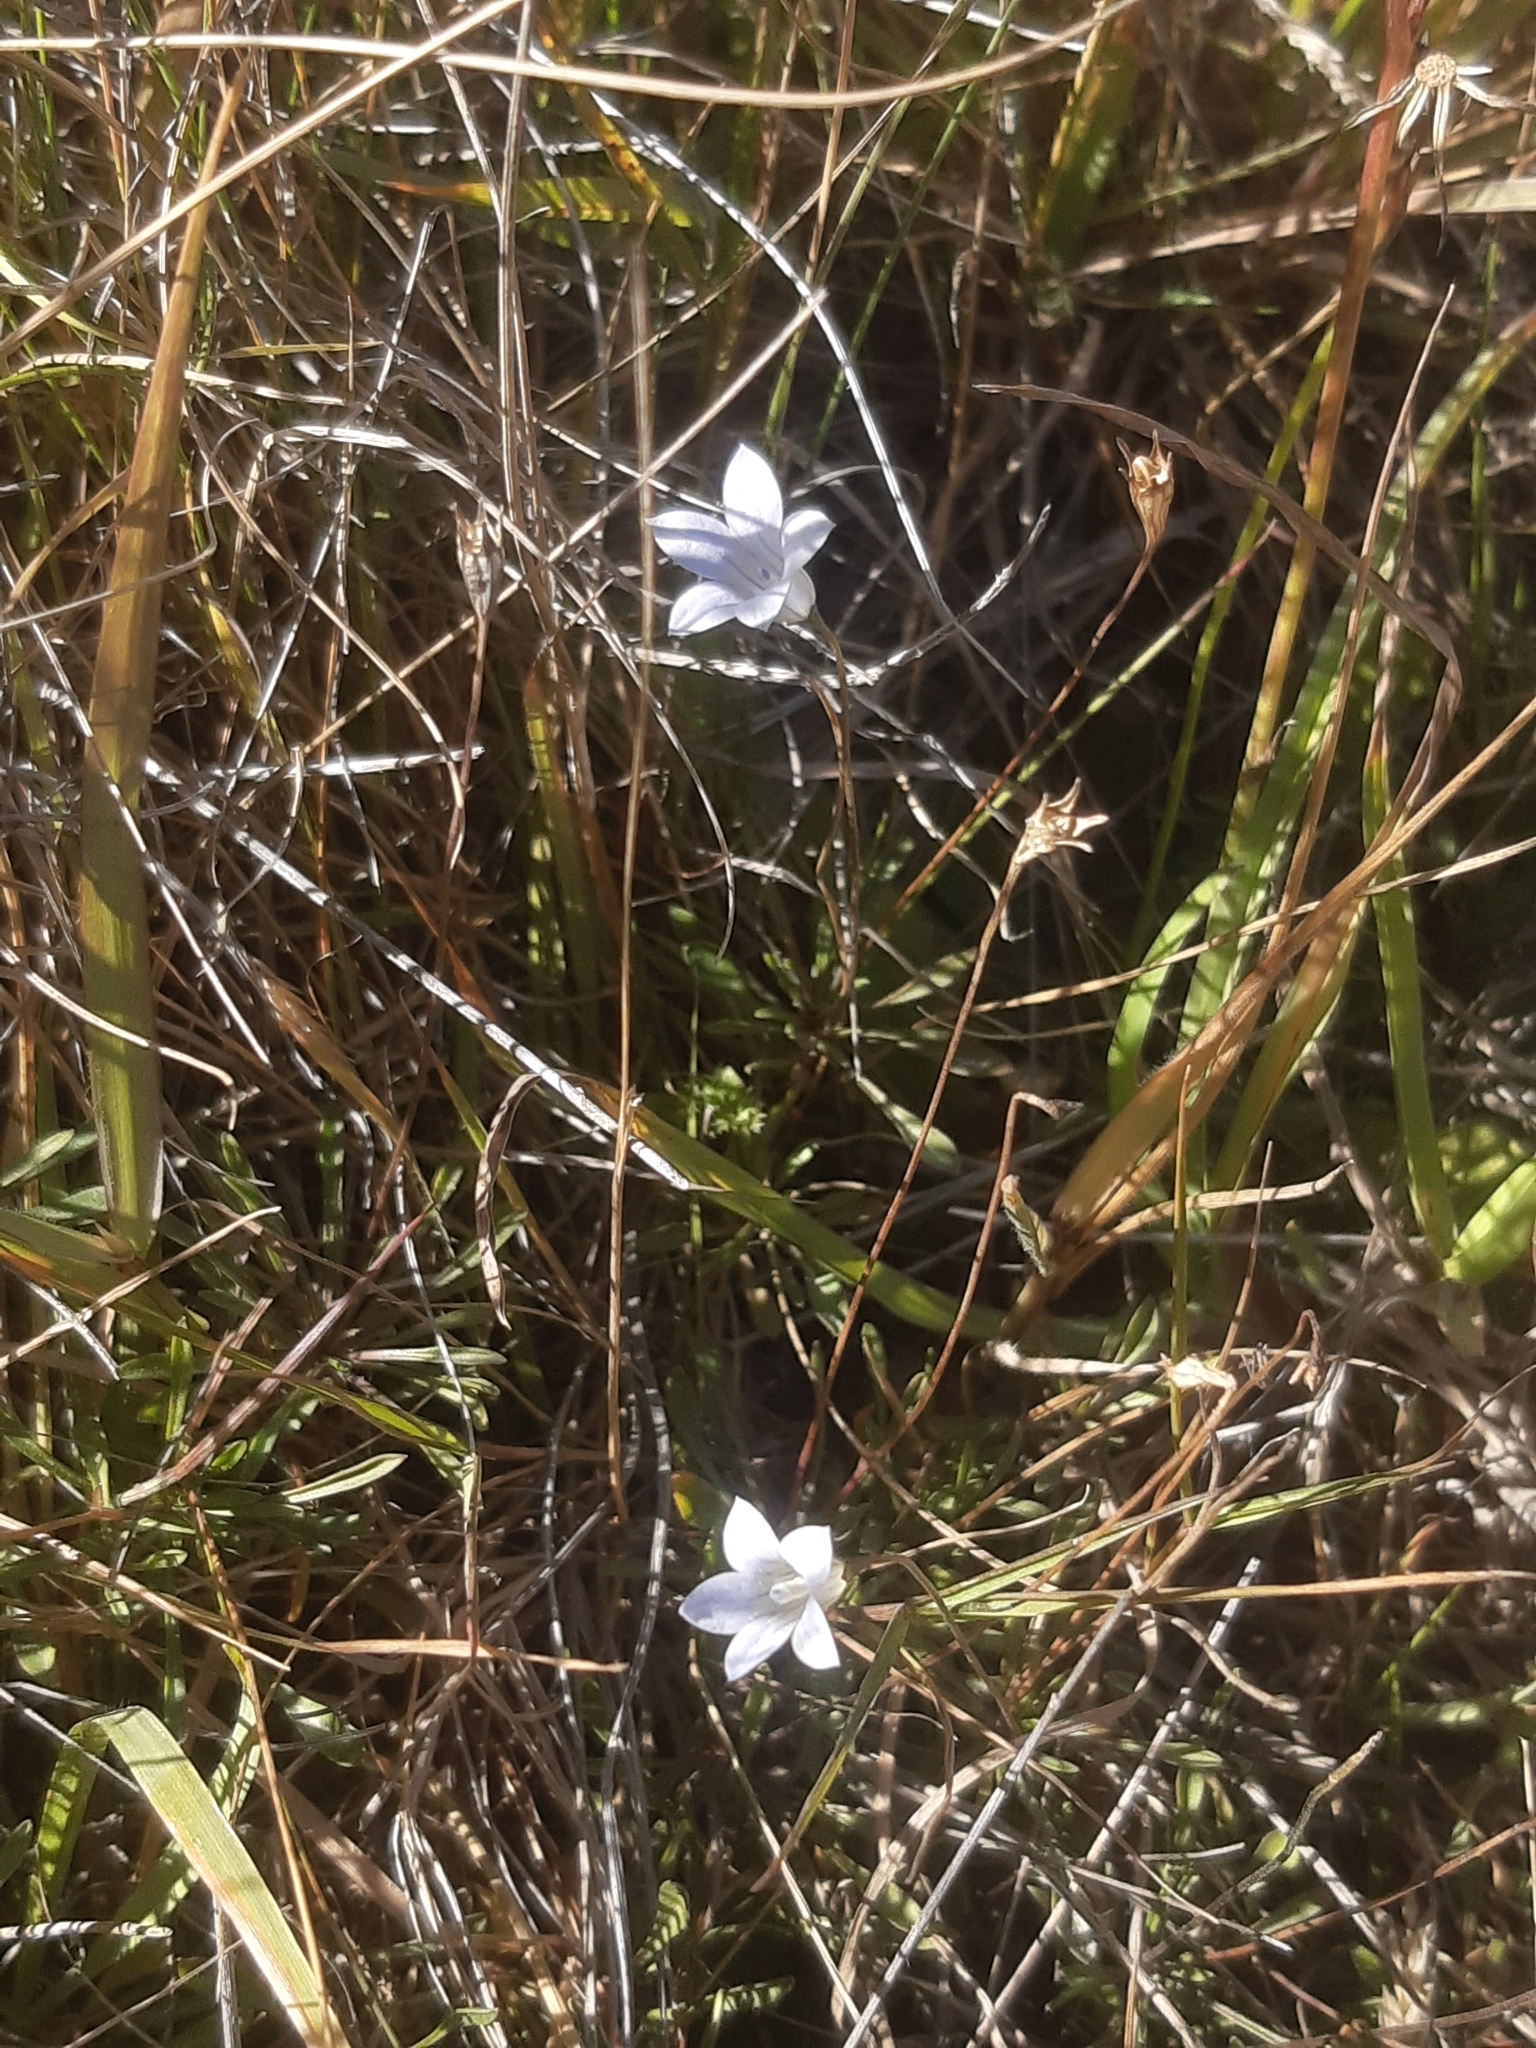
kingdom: Plantae
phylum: Tracheophyta
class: Magnoliopsida
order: Asterales
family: Campanulaceae
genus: Wahlenbergia
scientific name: Wahlenbergia albomarginata
